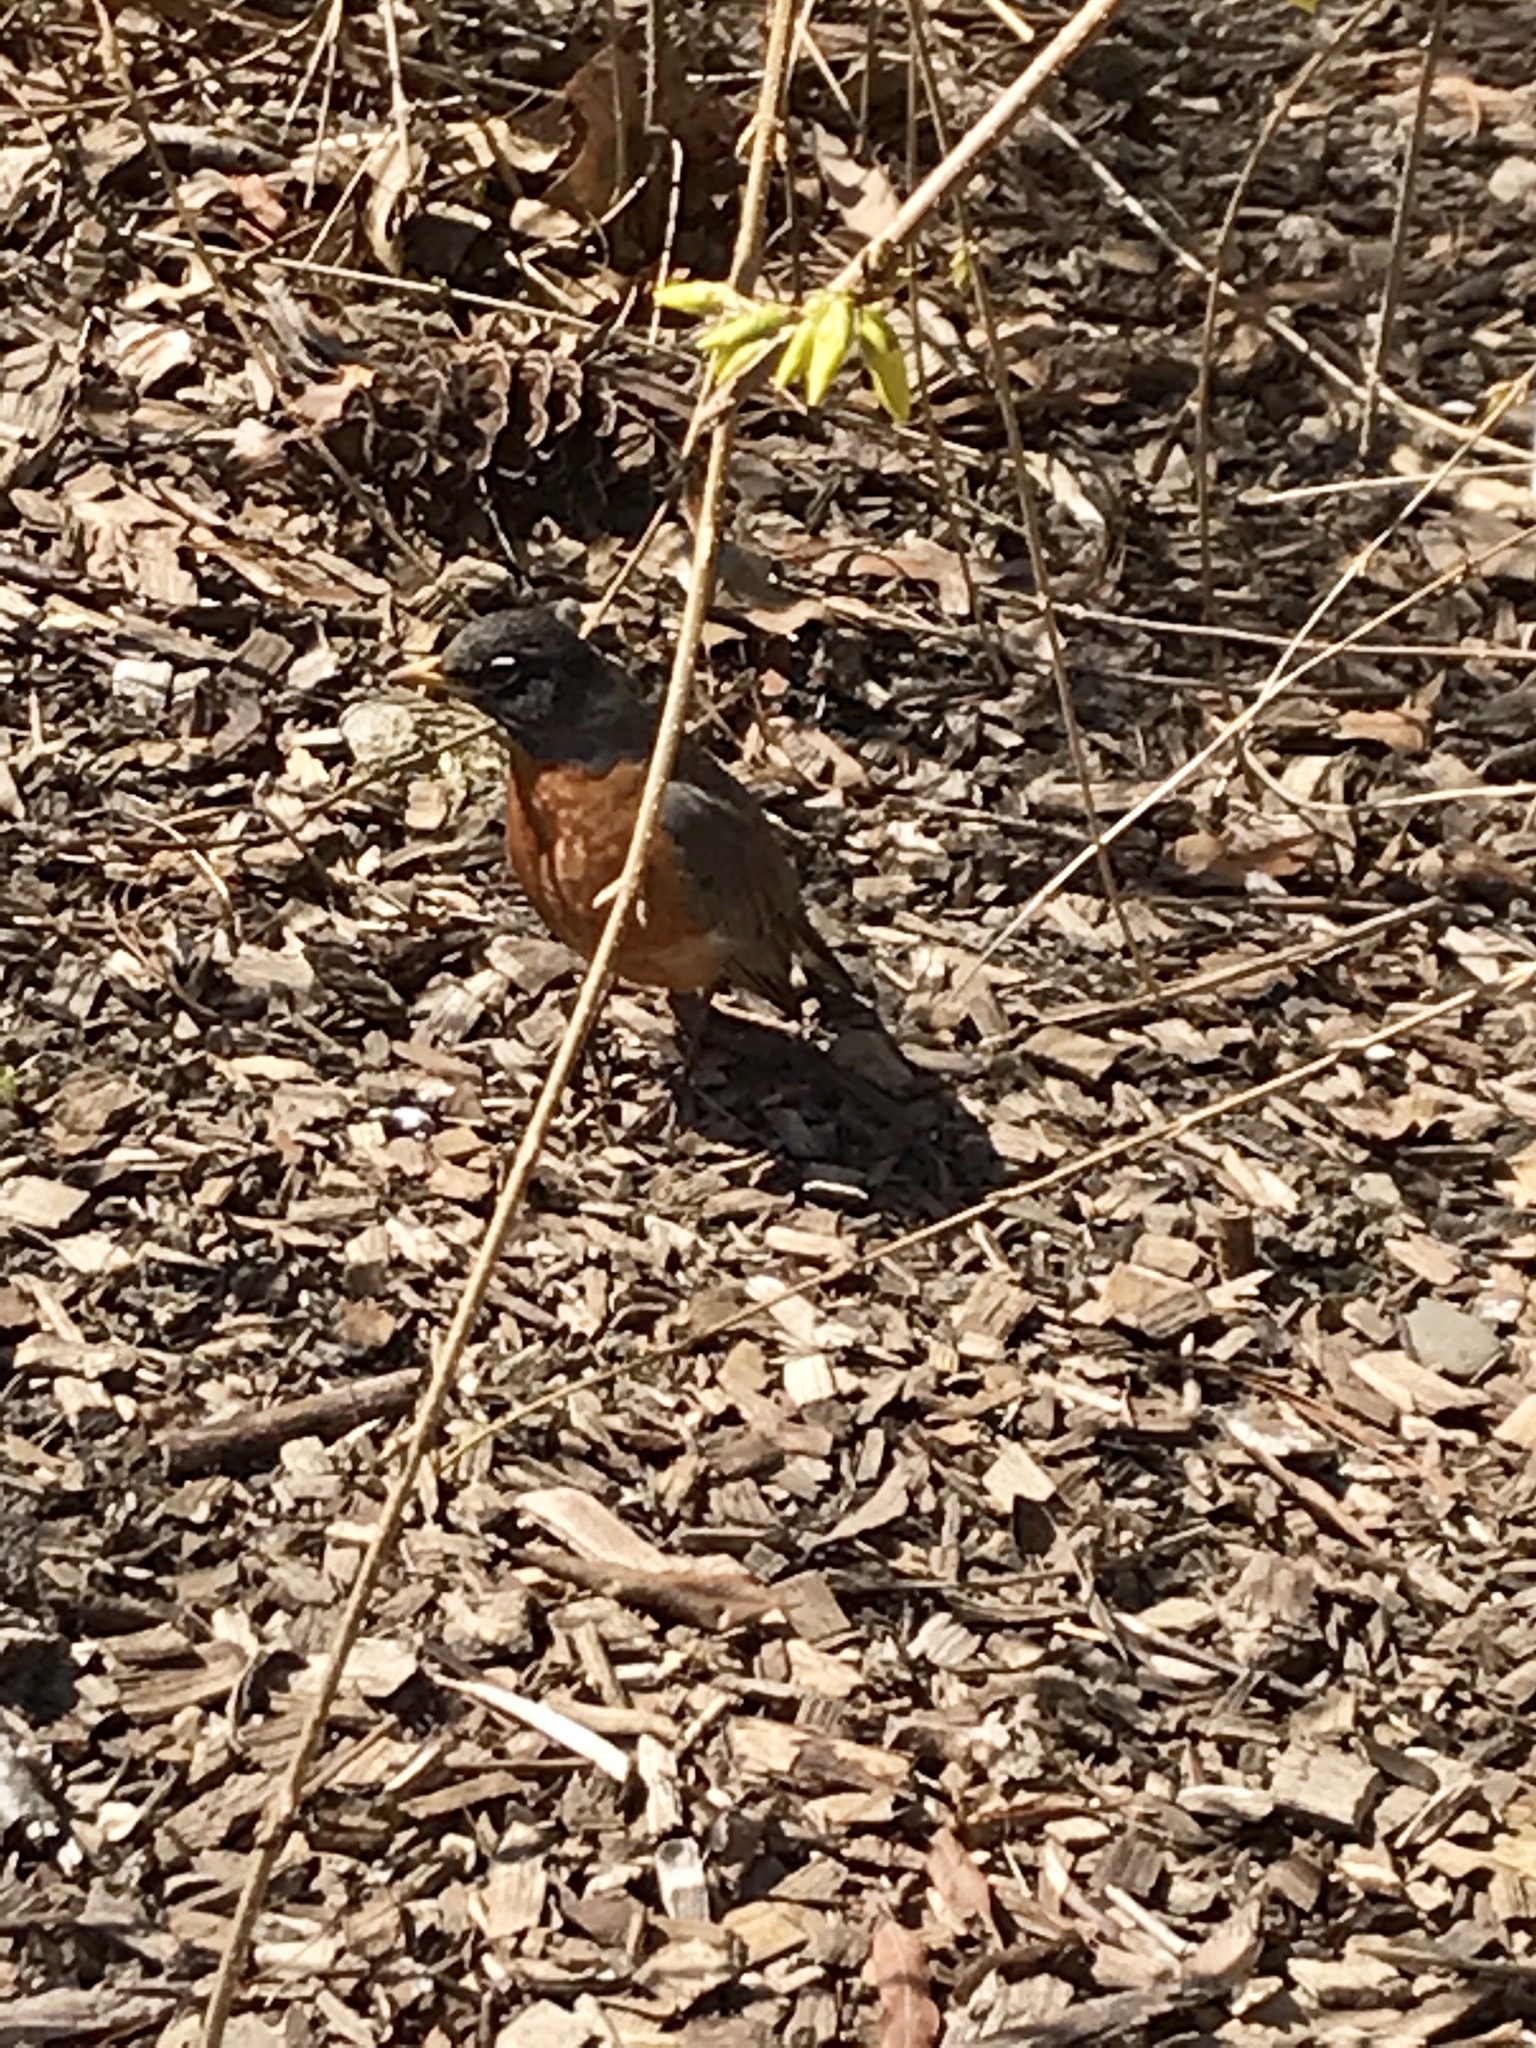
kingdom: Animalia
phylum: Chordata
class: Aves
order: Passeriformes
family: Turdidae
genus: Turdus
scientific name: Turdus migratorius
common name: American robin
